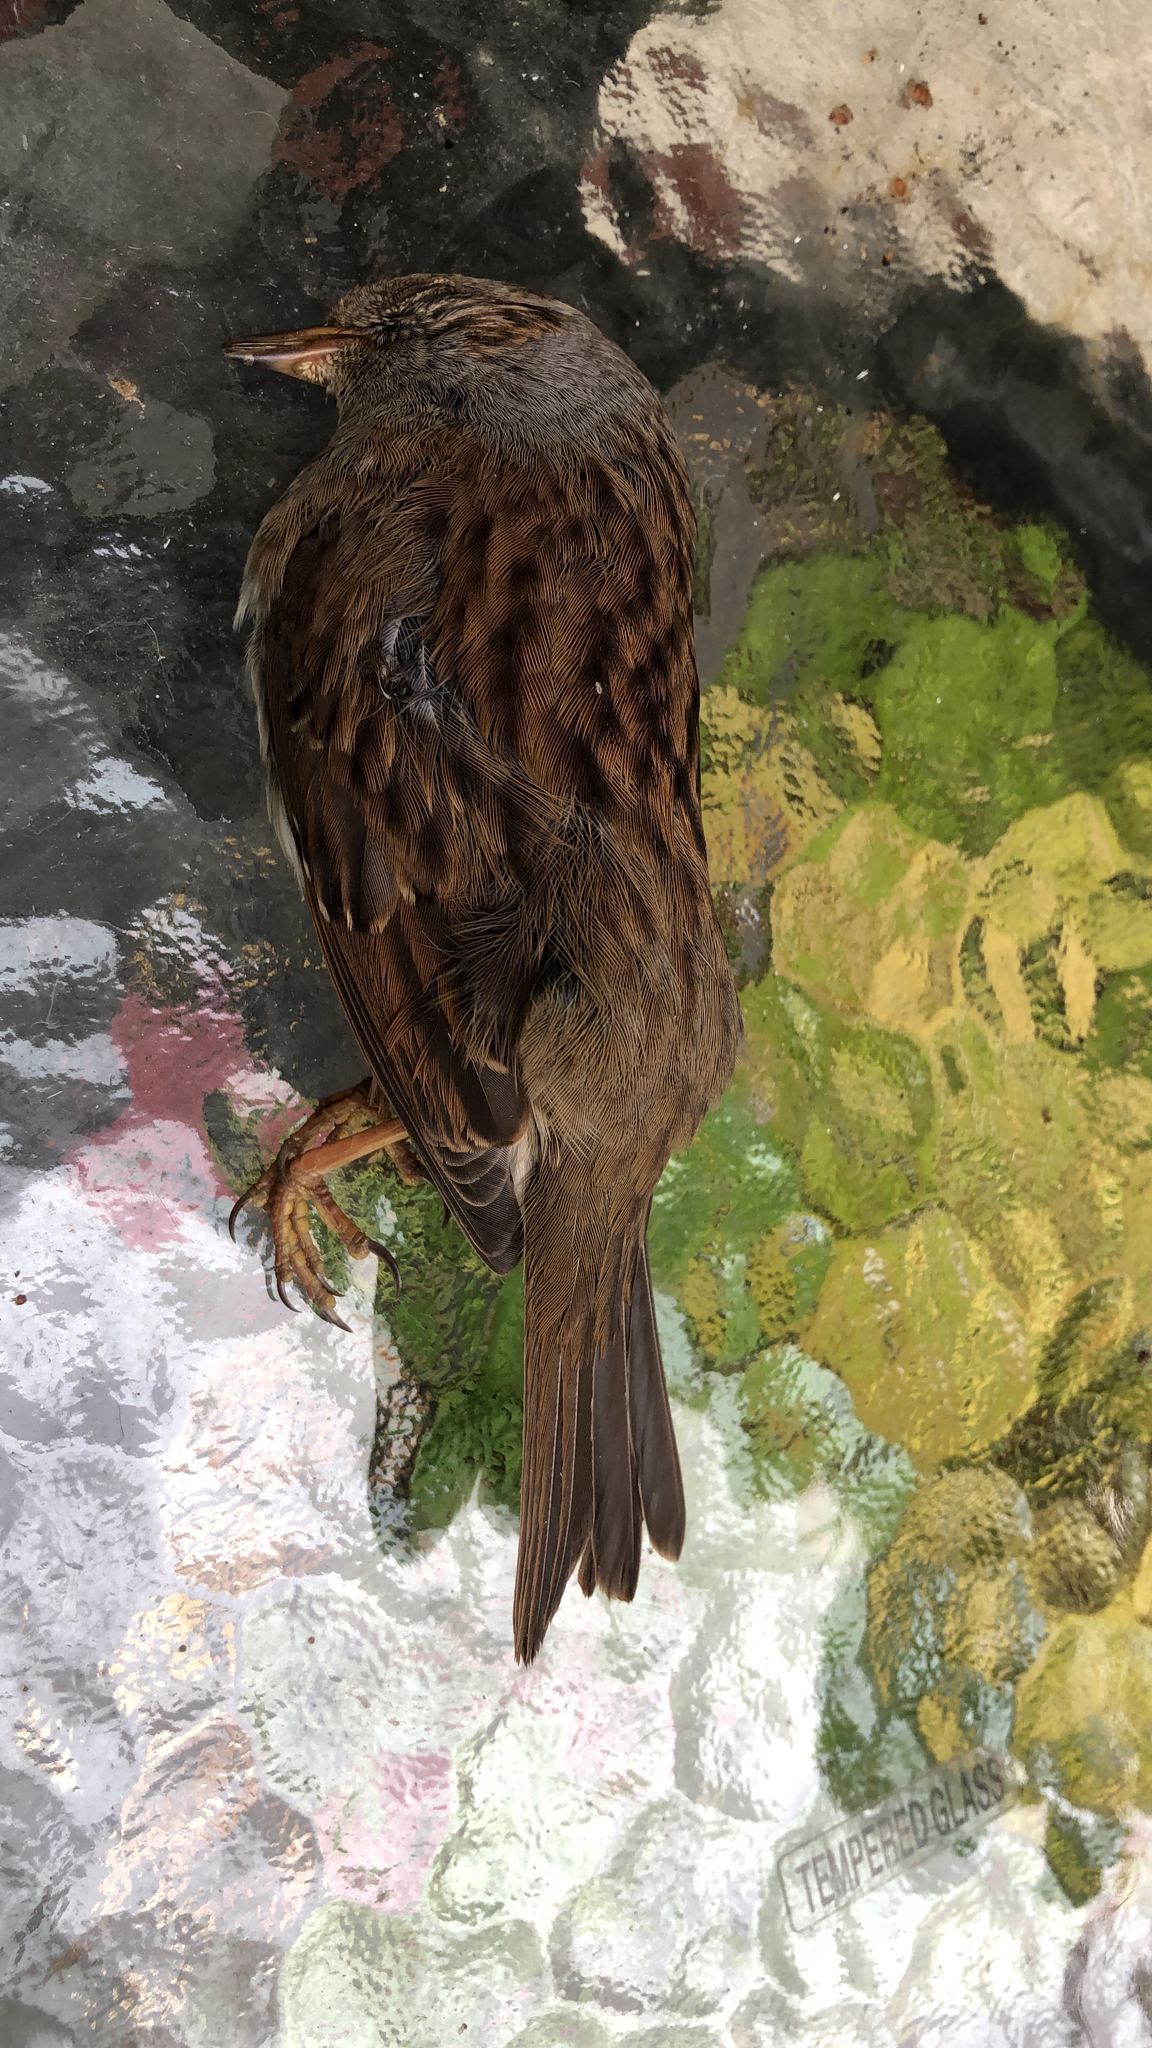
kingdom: Animalia
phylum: Chordata
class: Aves
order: Passeriformes
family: Prunellidae
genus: Prunella
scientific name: Prunella modularis
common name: Dunnock
